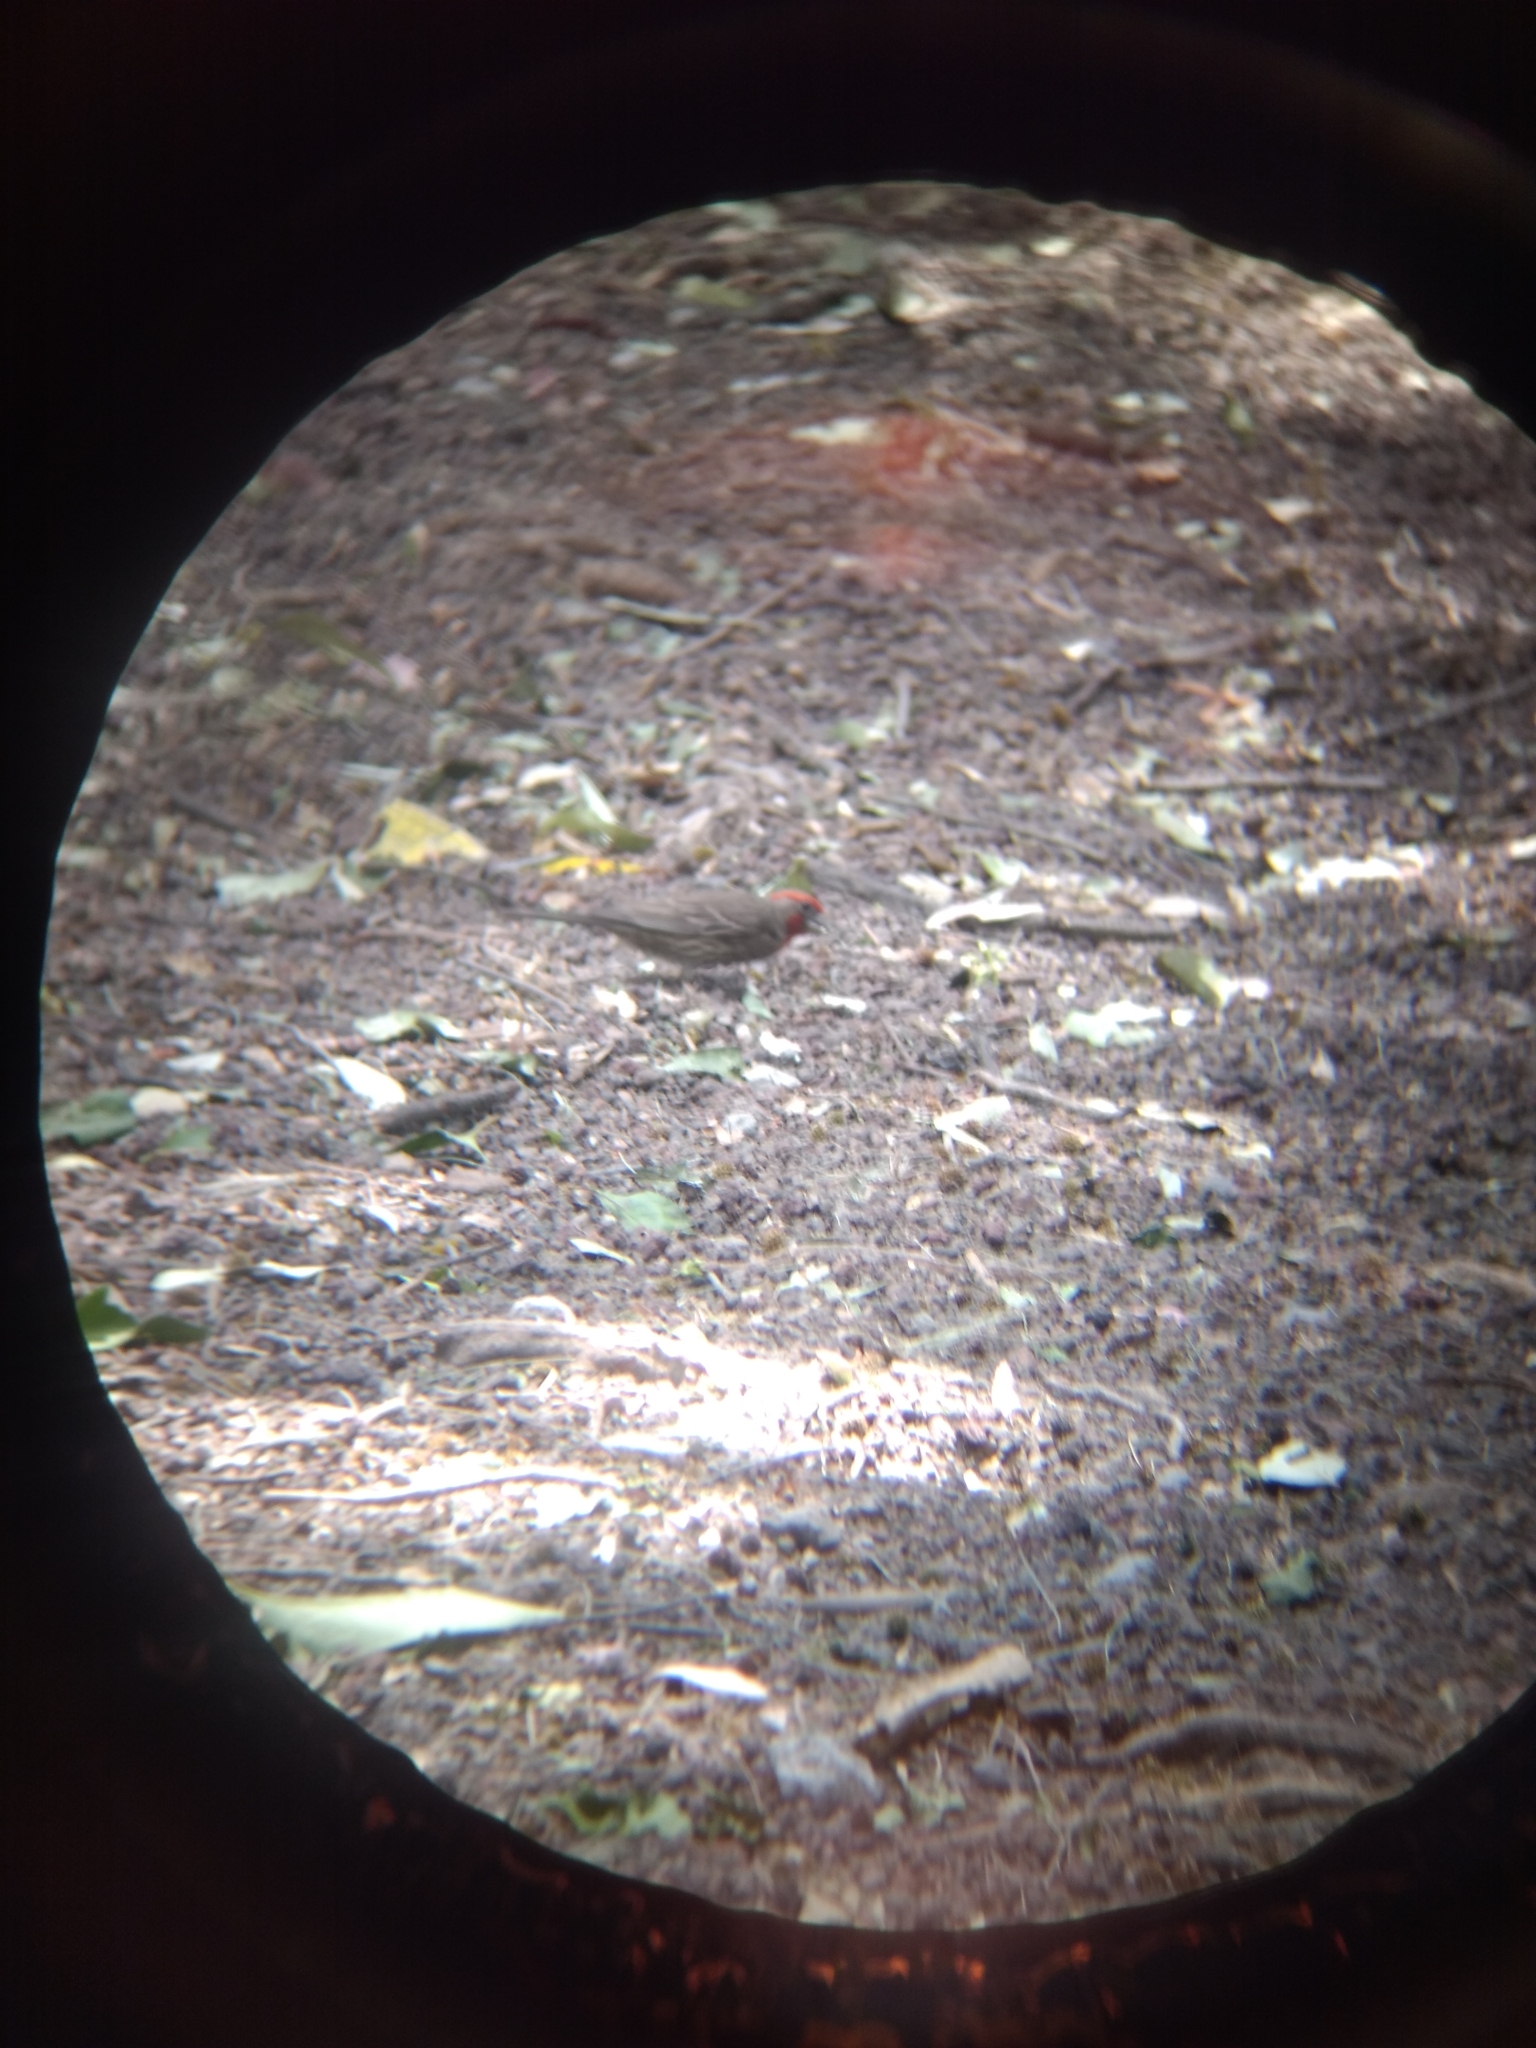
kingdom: Animalia
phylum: Chordata
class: Aves
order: Passeriformes
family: Fringillidae
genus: Haemorhous
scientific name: Haemorhous mexicanus
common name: House finch
